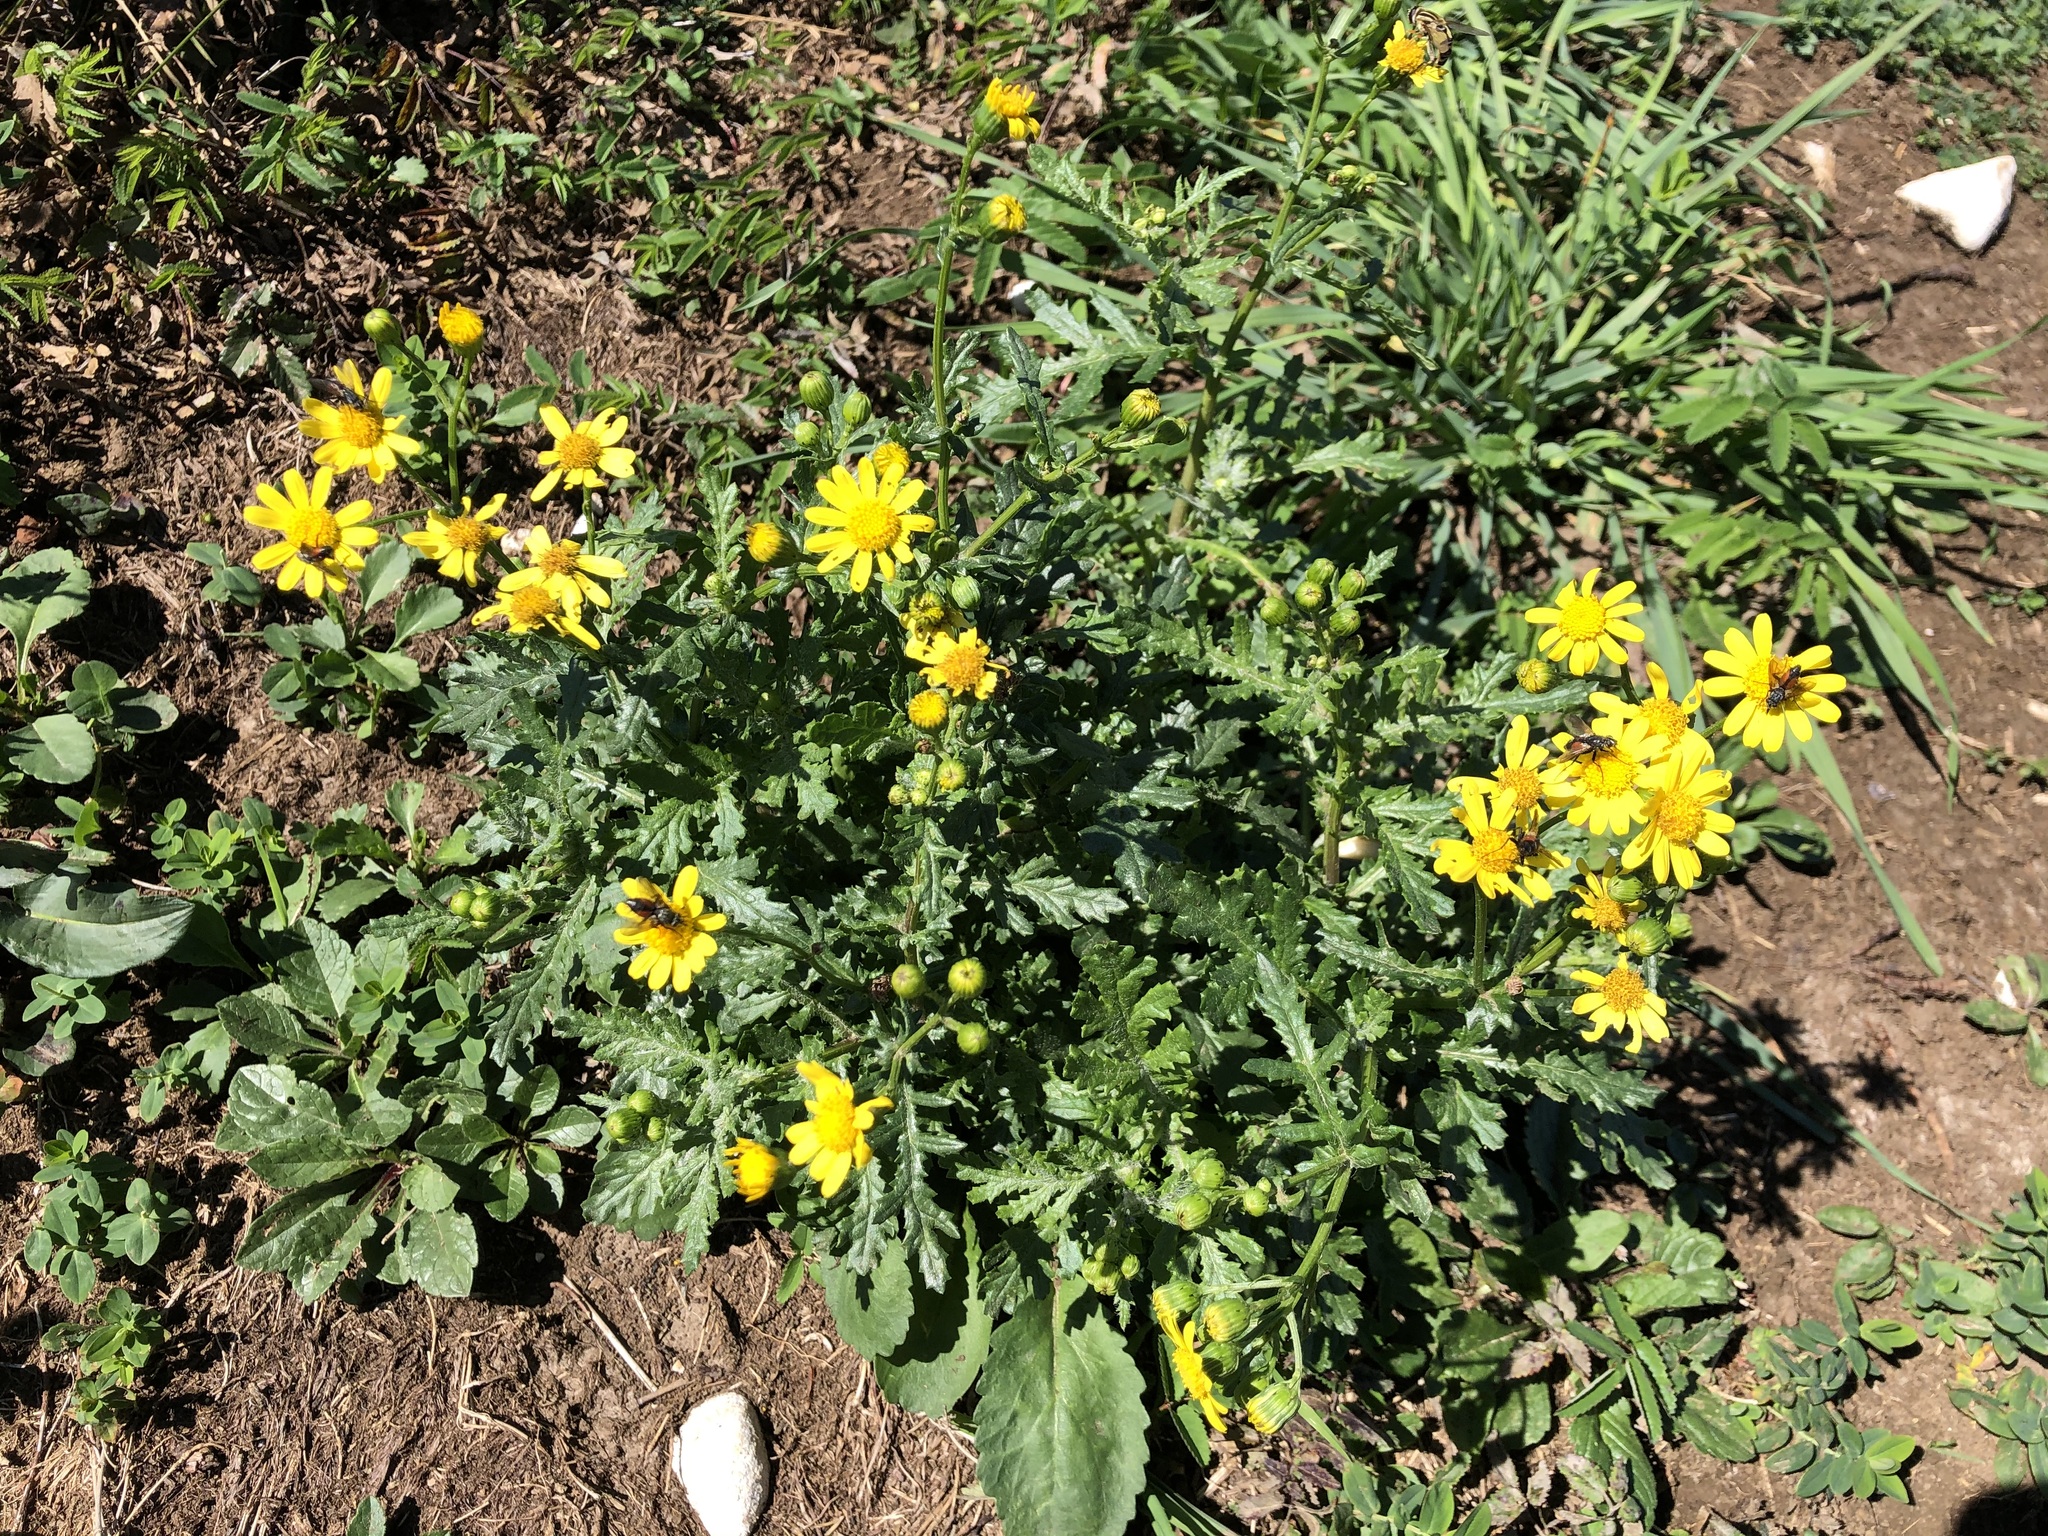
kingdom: Plantae
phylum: Tracheophyta
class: Magnoliopsida
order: Asterales
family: Asteraceae
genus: Senecio
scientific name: Senecio rupestris
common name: Rock ragwort
